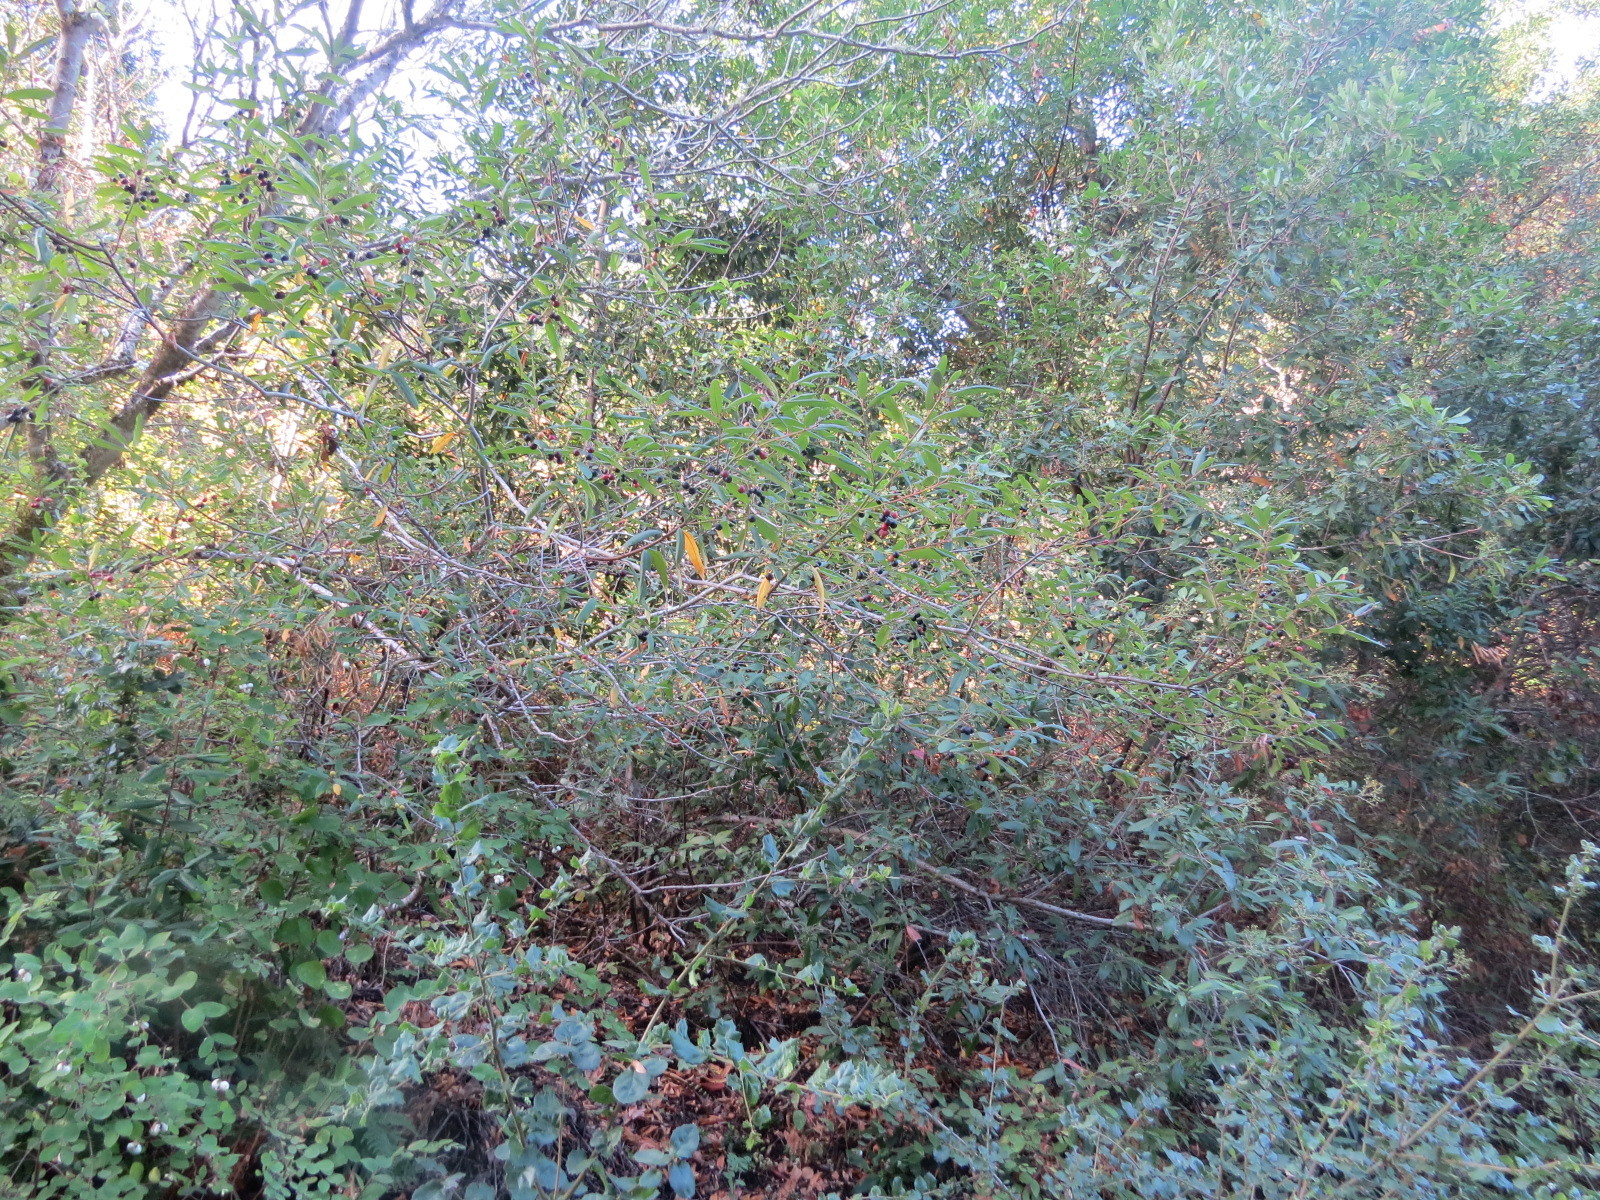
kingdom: Plantae
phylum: Tracheophyta
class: Magnoliopsida
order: Rosales
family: Rhamnaceae
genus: Frangula
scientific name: Frangula californica
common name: California buckthorn
